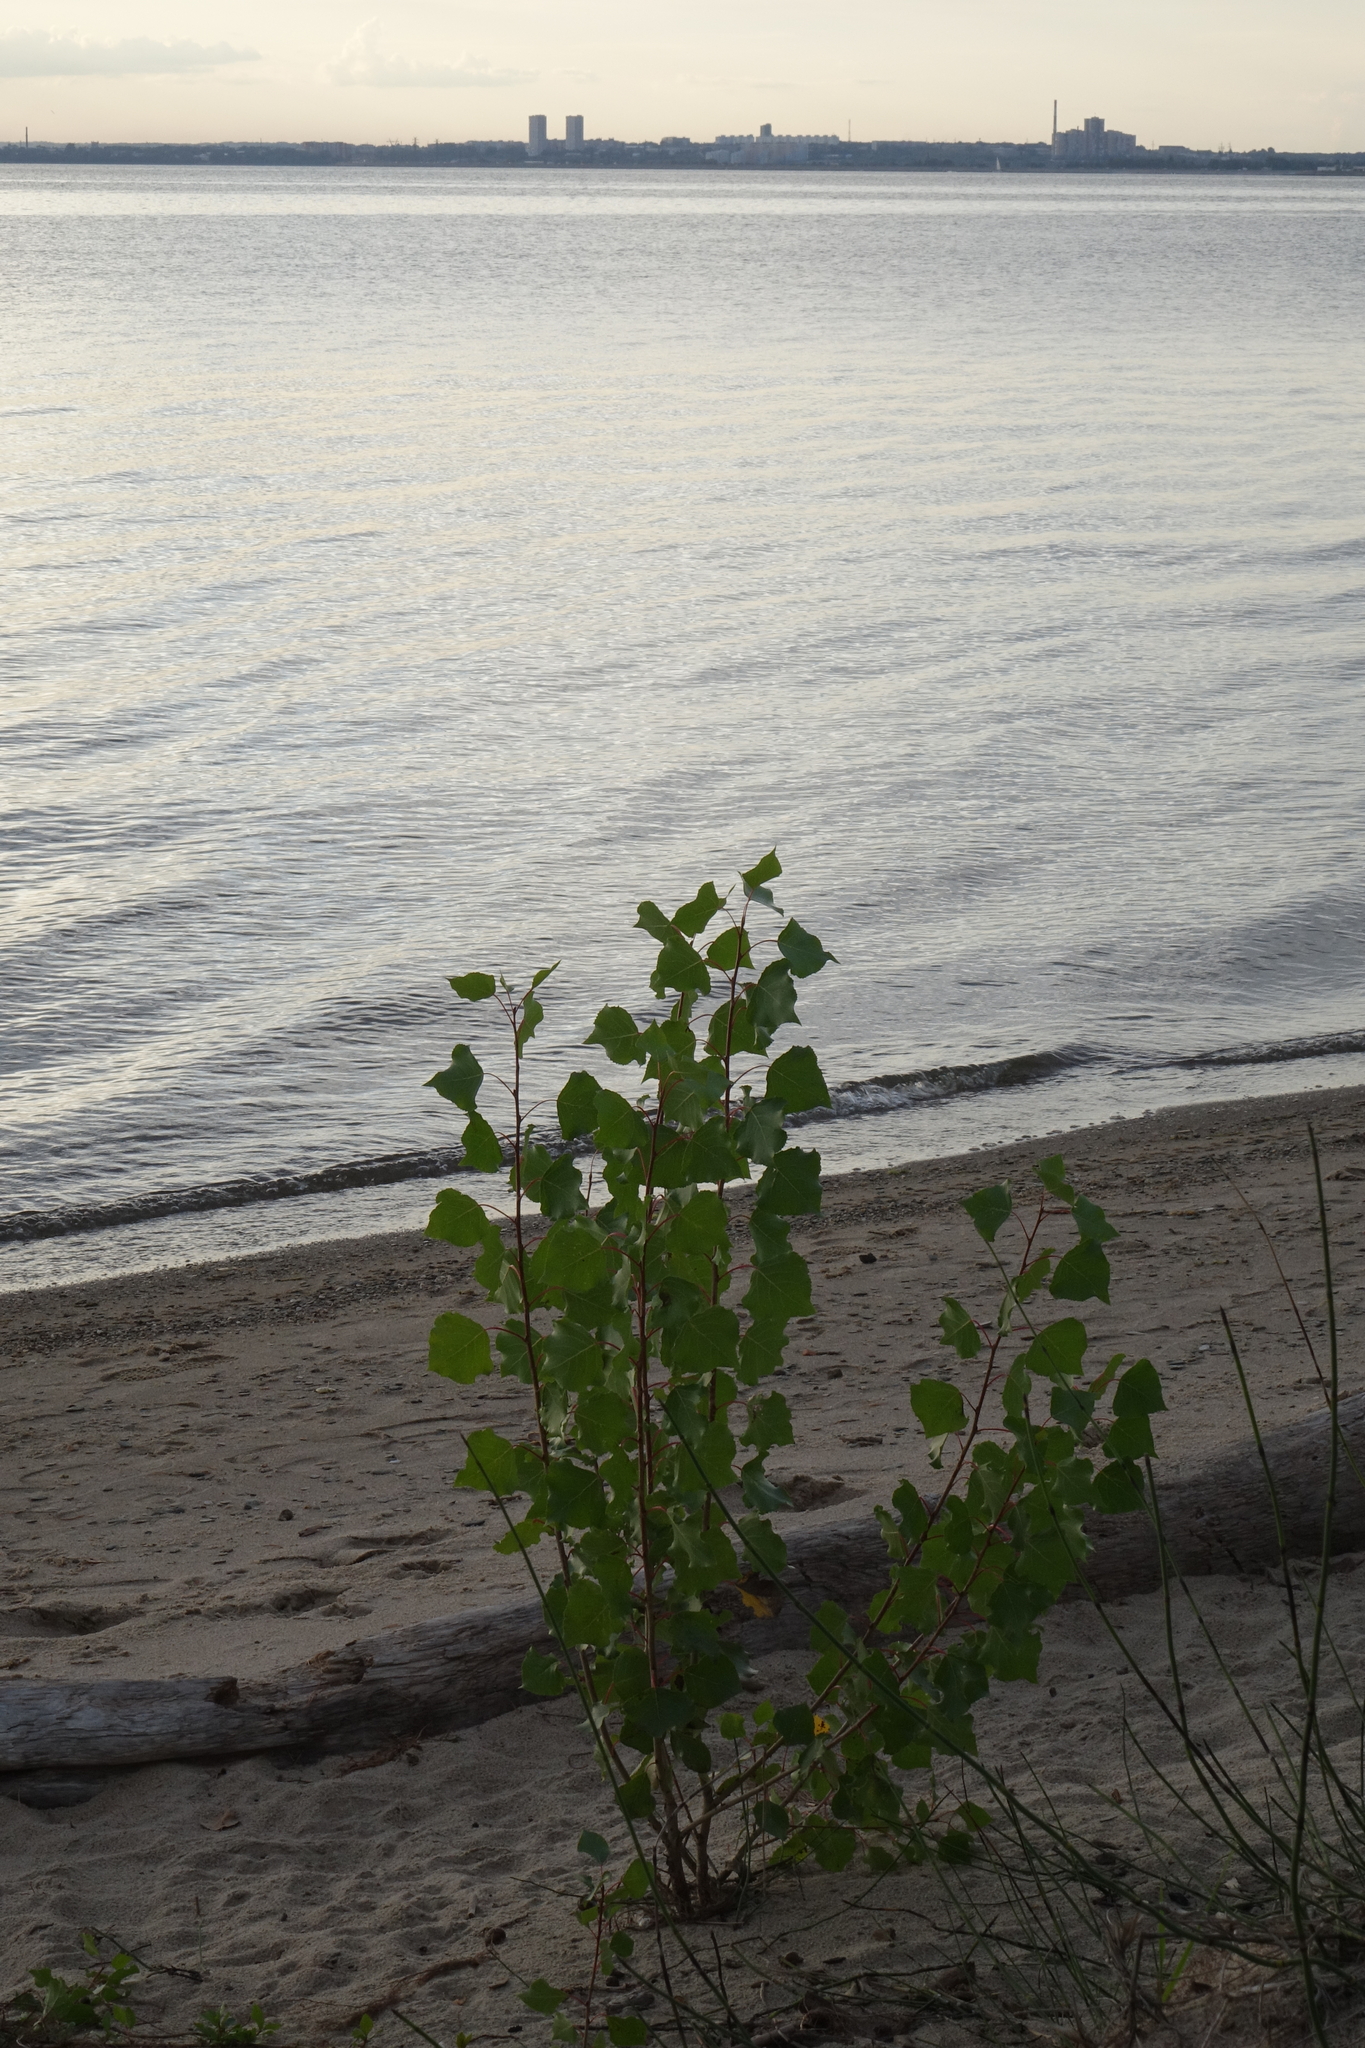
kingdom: Plantae
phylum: Tracheophyta
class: Magnoliopsida
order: Malpighiales
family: Salicaceae
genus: Populus
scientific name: Populus nigra
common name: Black poplar
